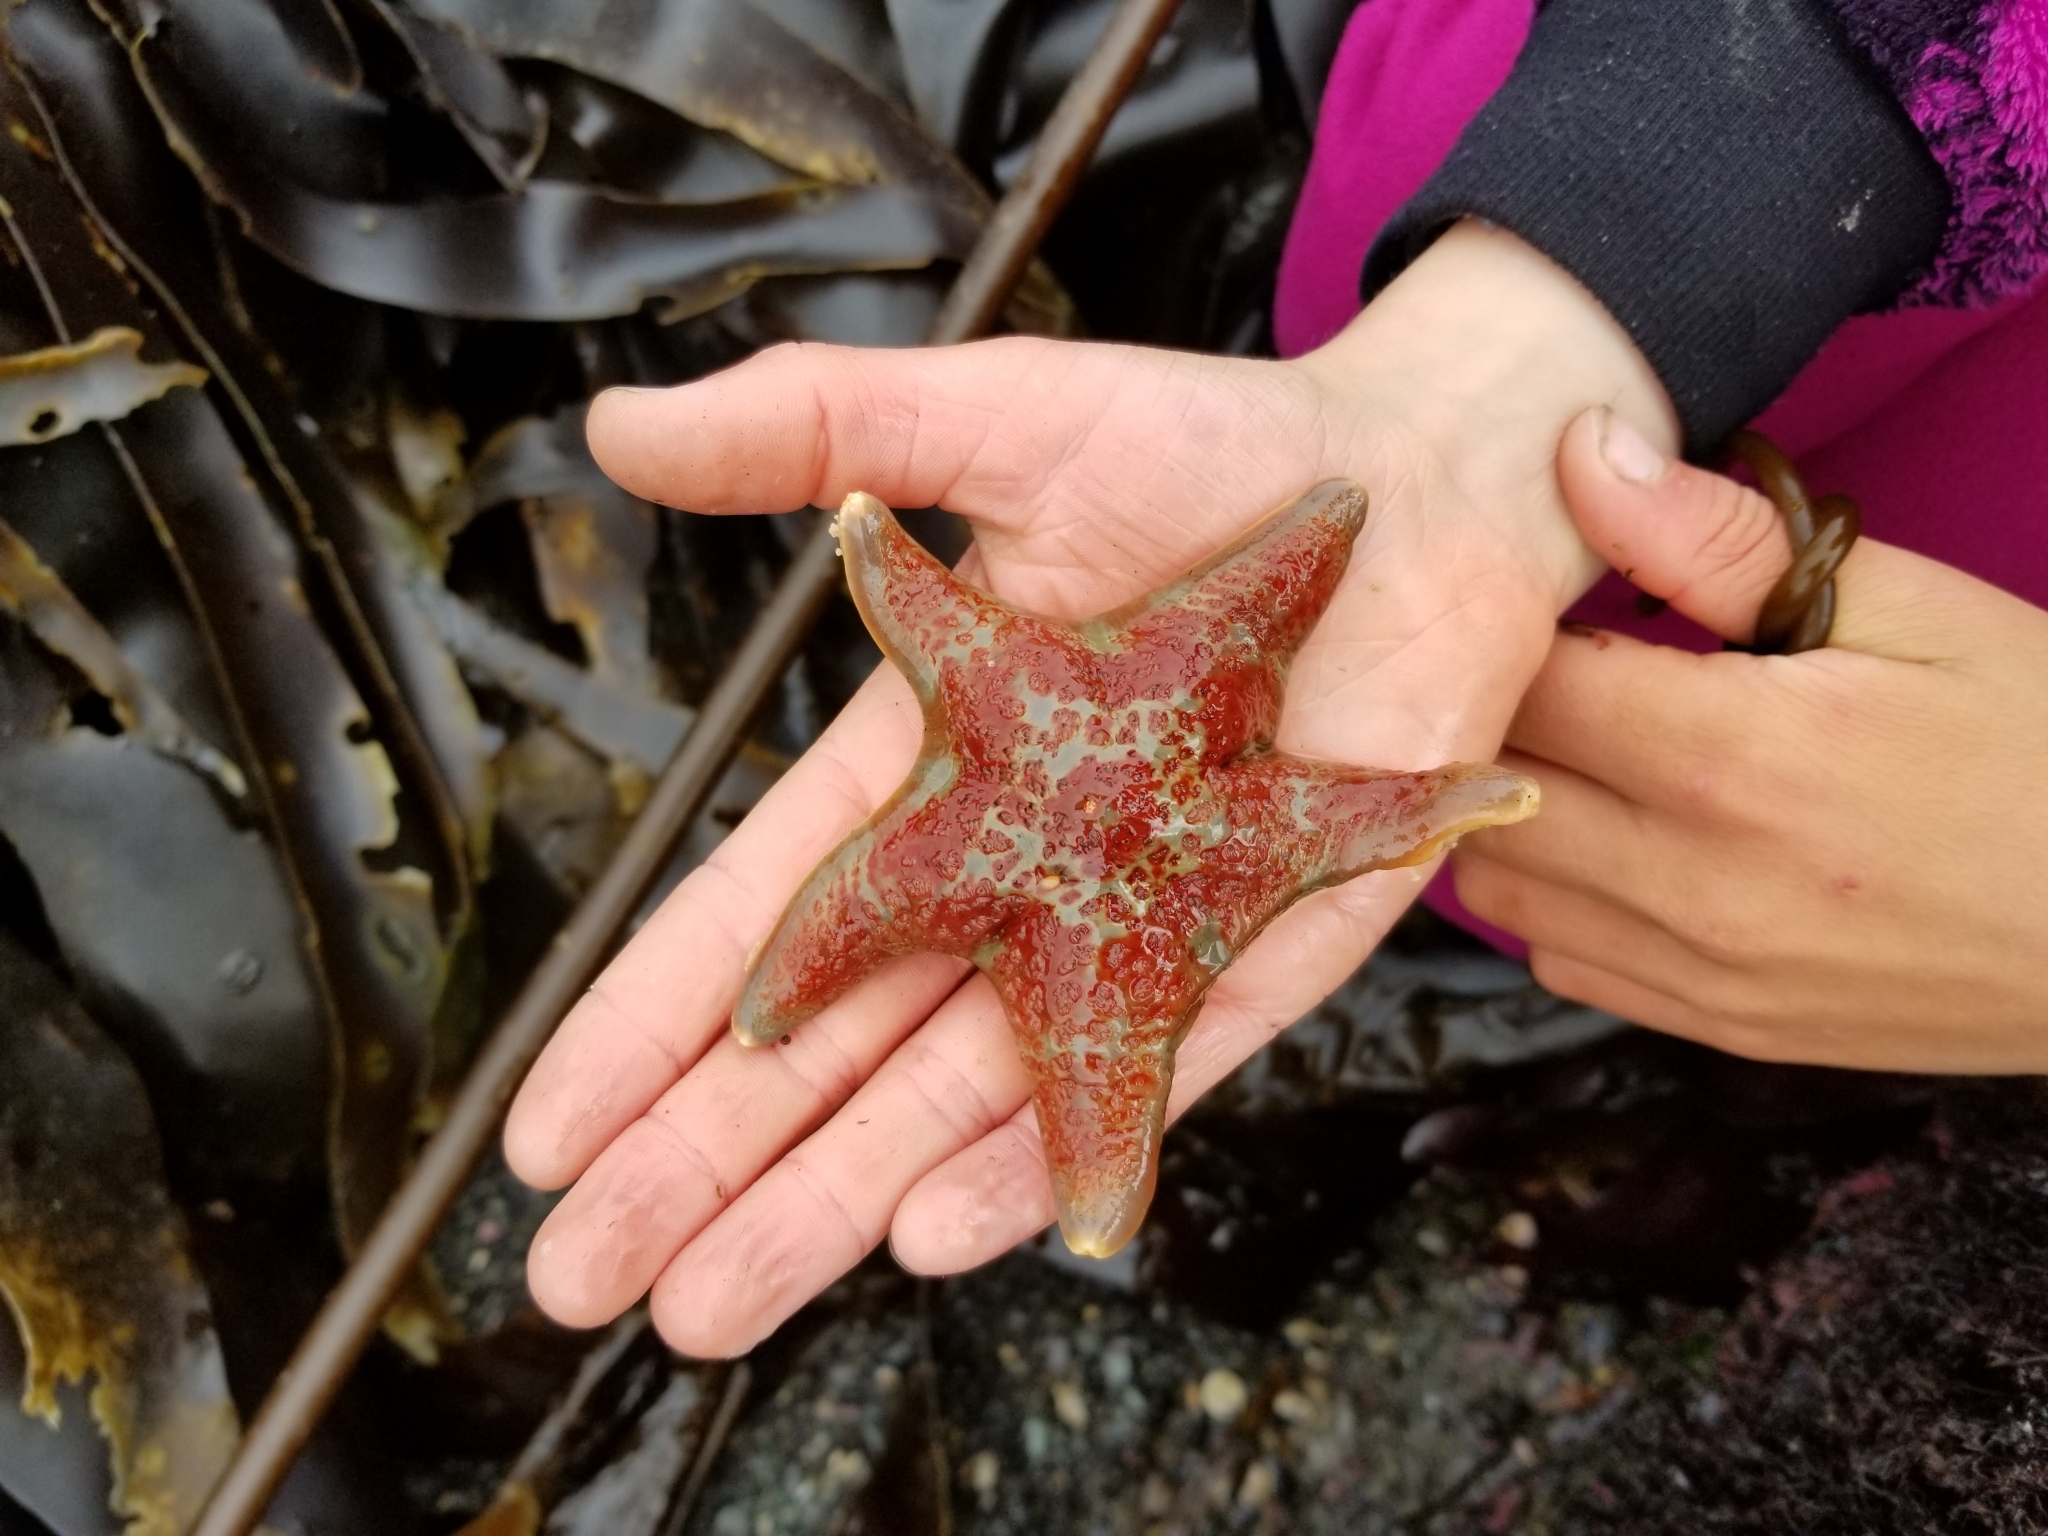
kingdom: Animalia
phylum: Echinodermata
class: Asteroidea
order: Valvatida
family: Asteropseidae
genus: Dermasterias
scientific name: Dermasterias imbricata
